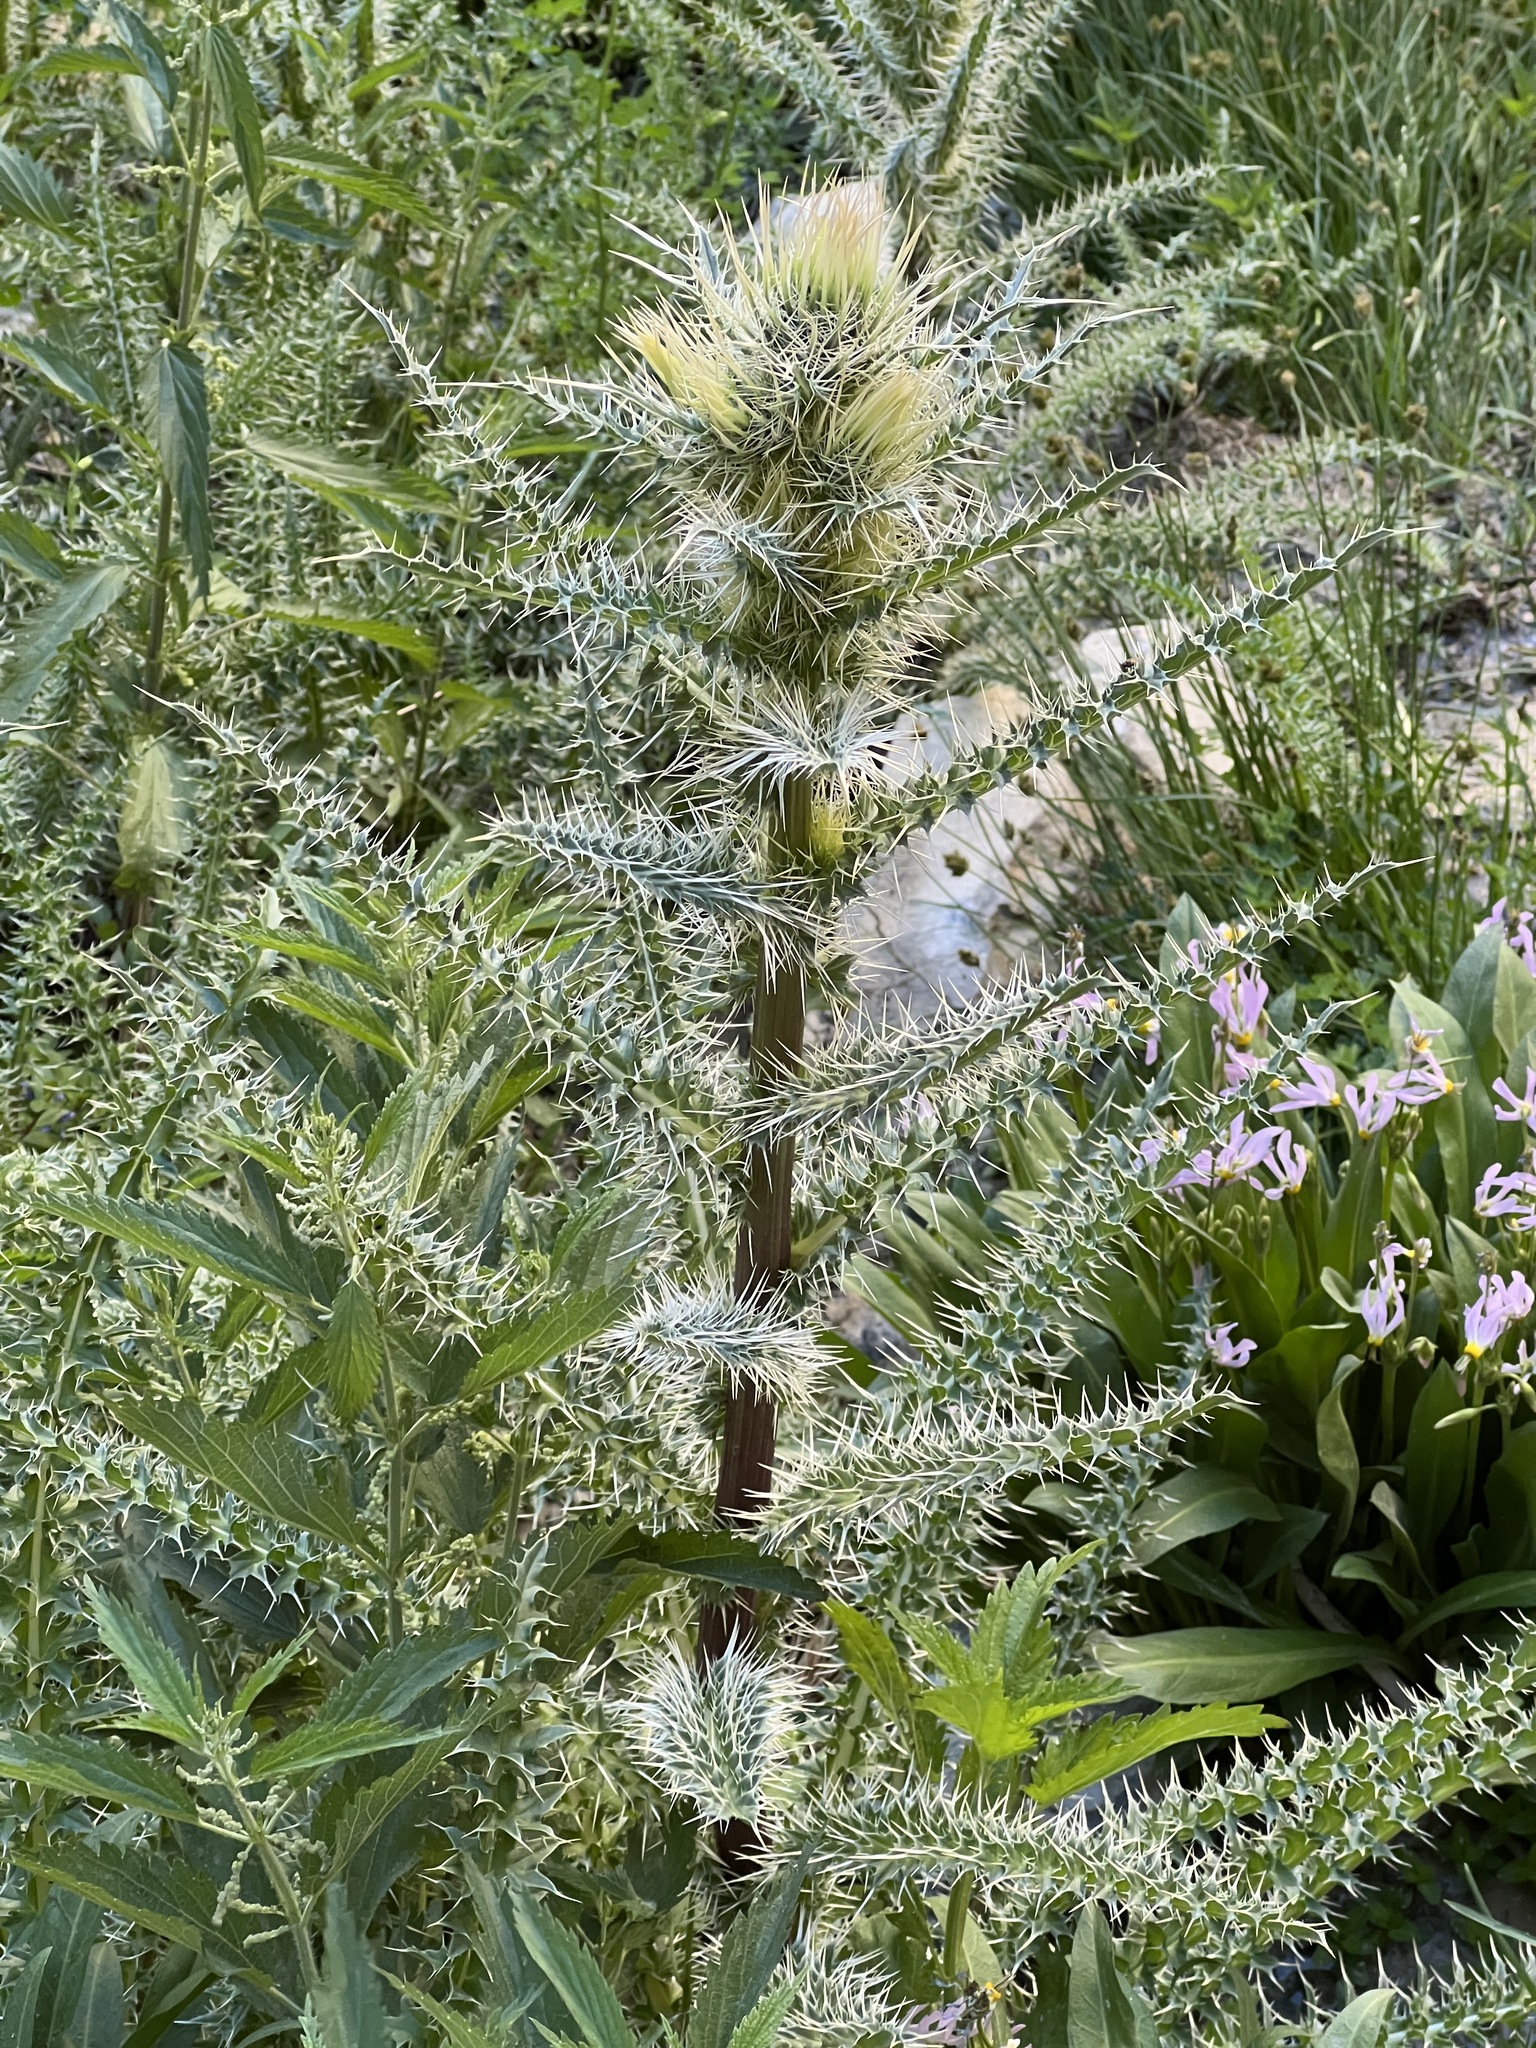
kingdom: Plantae
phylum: Tracheophyta
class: Magnoliopsida
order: Asterales
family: Asteraceae
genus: Cirsium
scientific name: Cirsium eatonii
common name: Eaton's thistle
